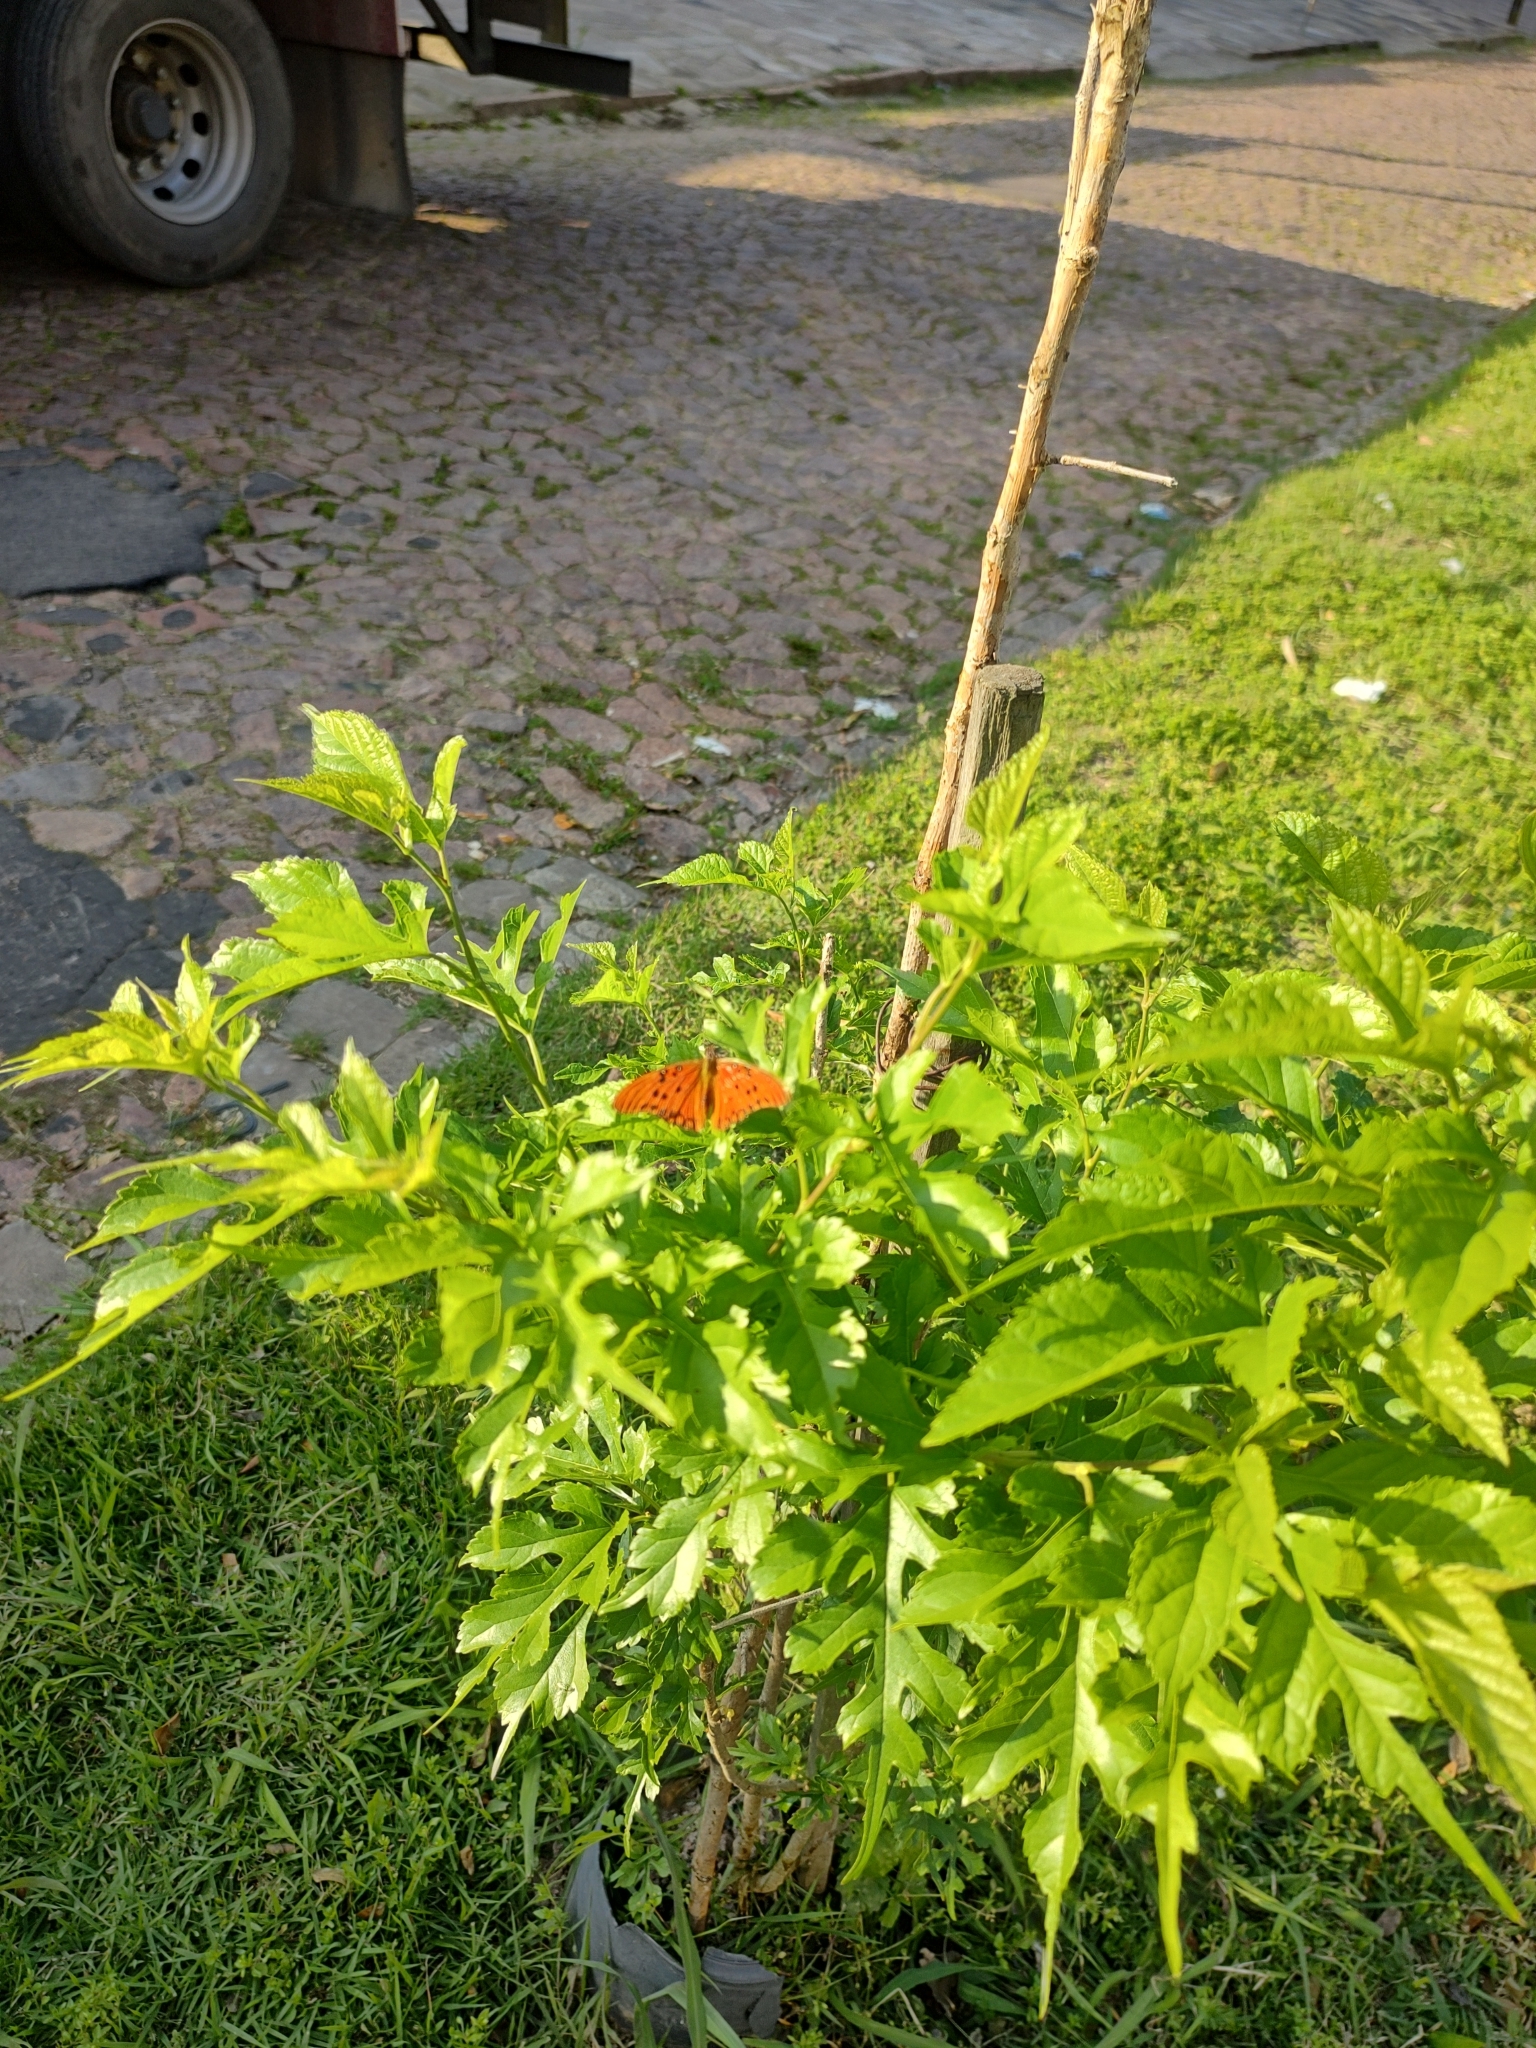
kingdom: Animalia
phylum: Arthropoda
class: Insecta
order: Lepidoptera
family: Nymphalidae
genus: Dione
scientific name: Dione vanillae
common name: Gulf fritillary
